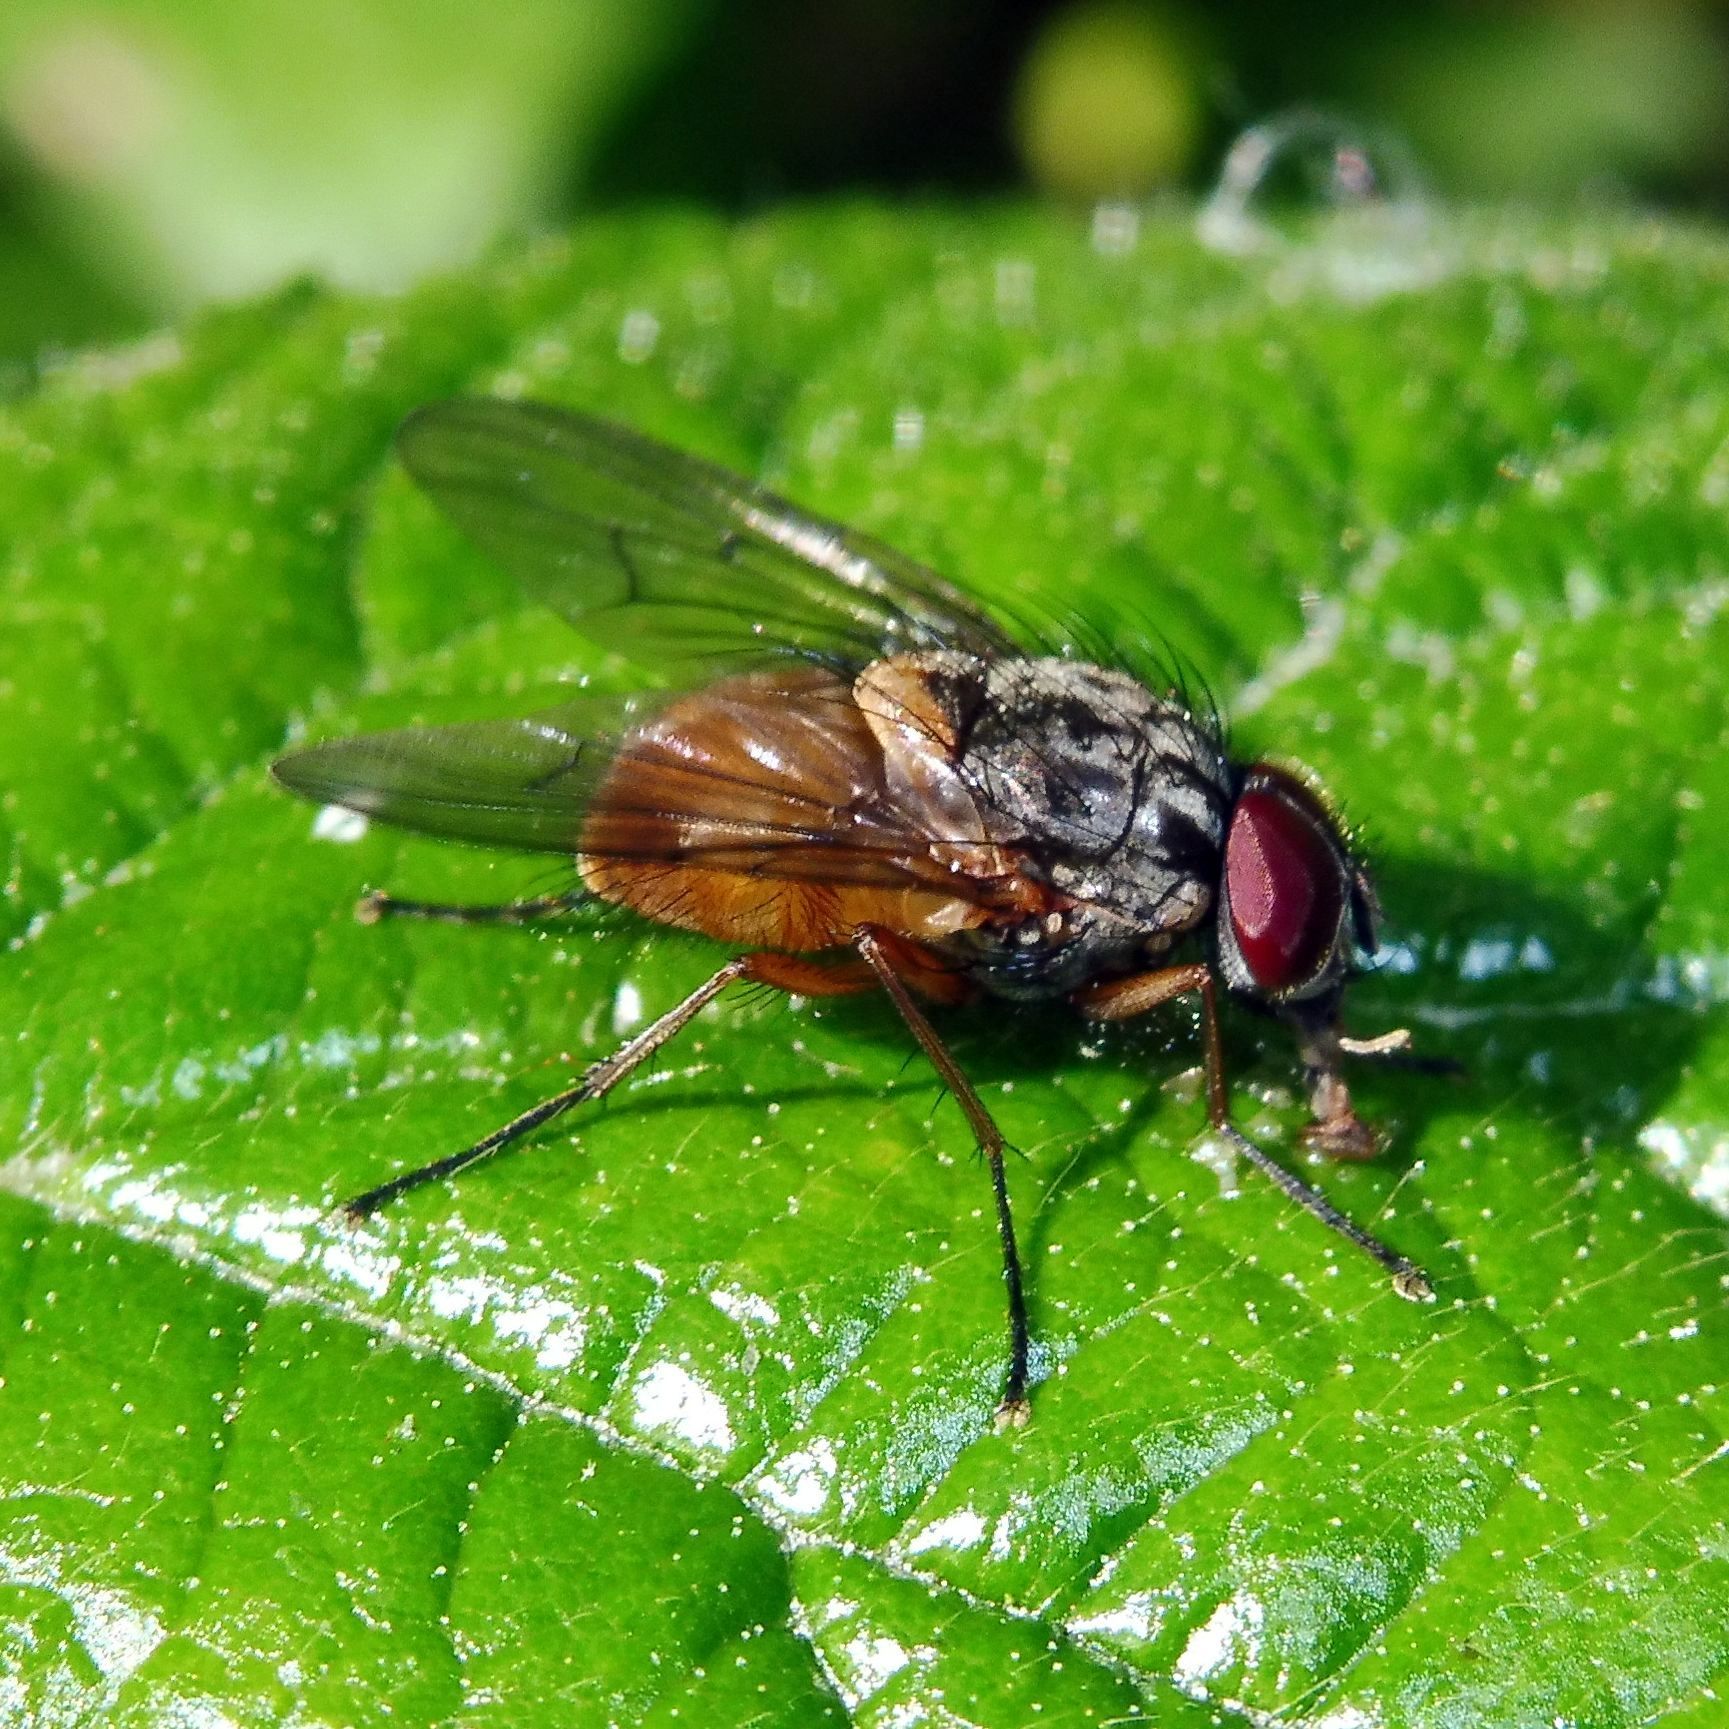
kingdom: Animalia
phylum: Arthropoda
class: Insecta
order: Diptera
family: Muscidae
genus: Phaonia
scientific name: Phaonia subventa
